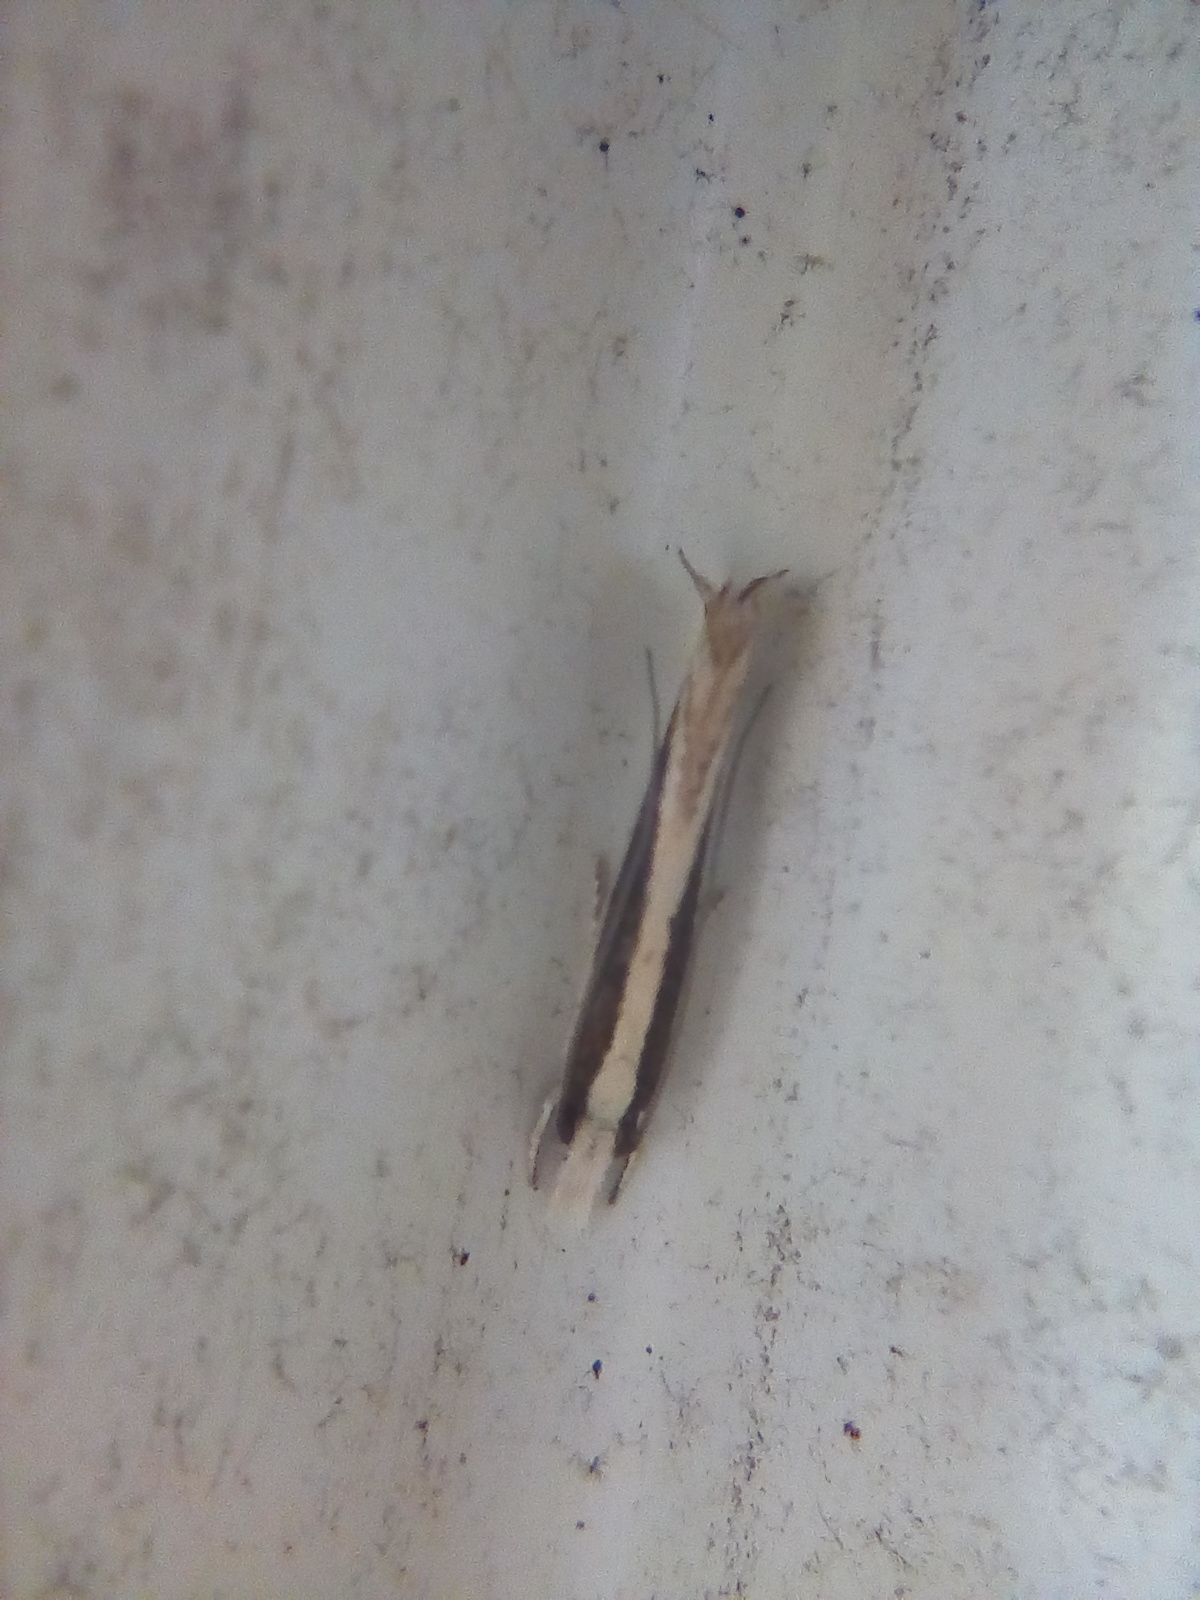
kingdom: Animalia
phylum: Arthropoda
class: Insecta
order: Lepidoptera
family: Tineidae
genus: Erechthias
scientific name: Erechthias stilbella
